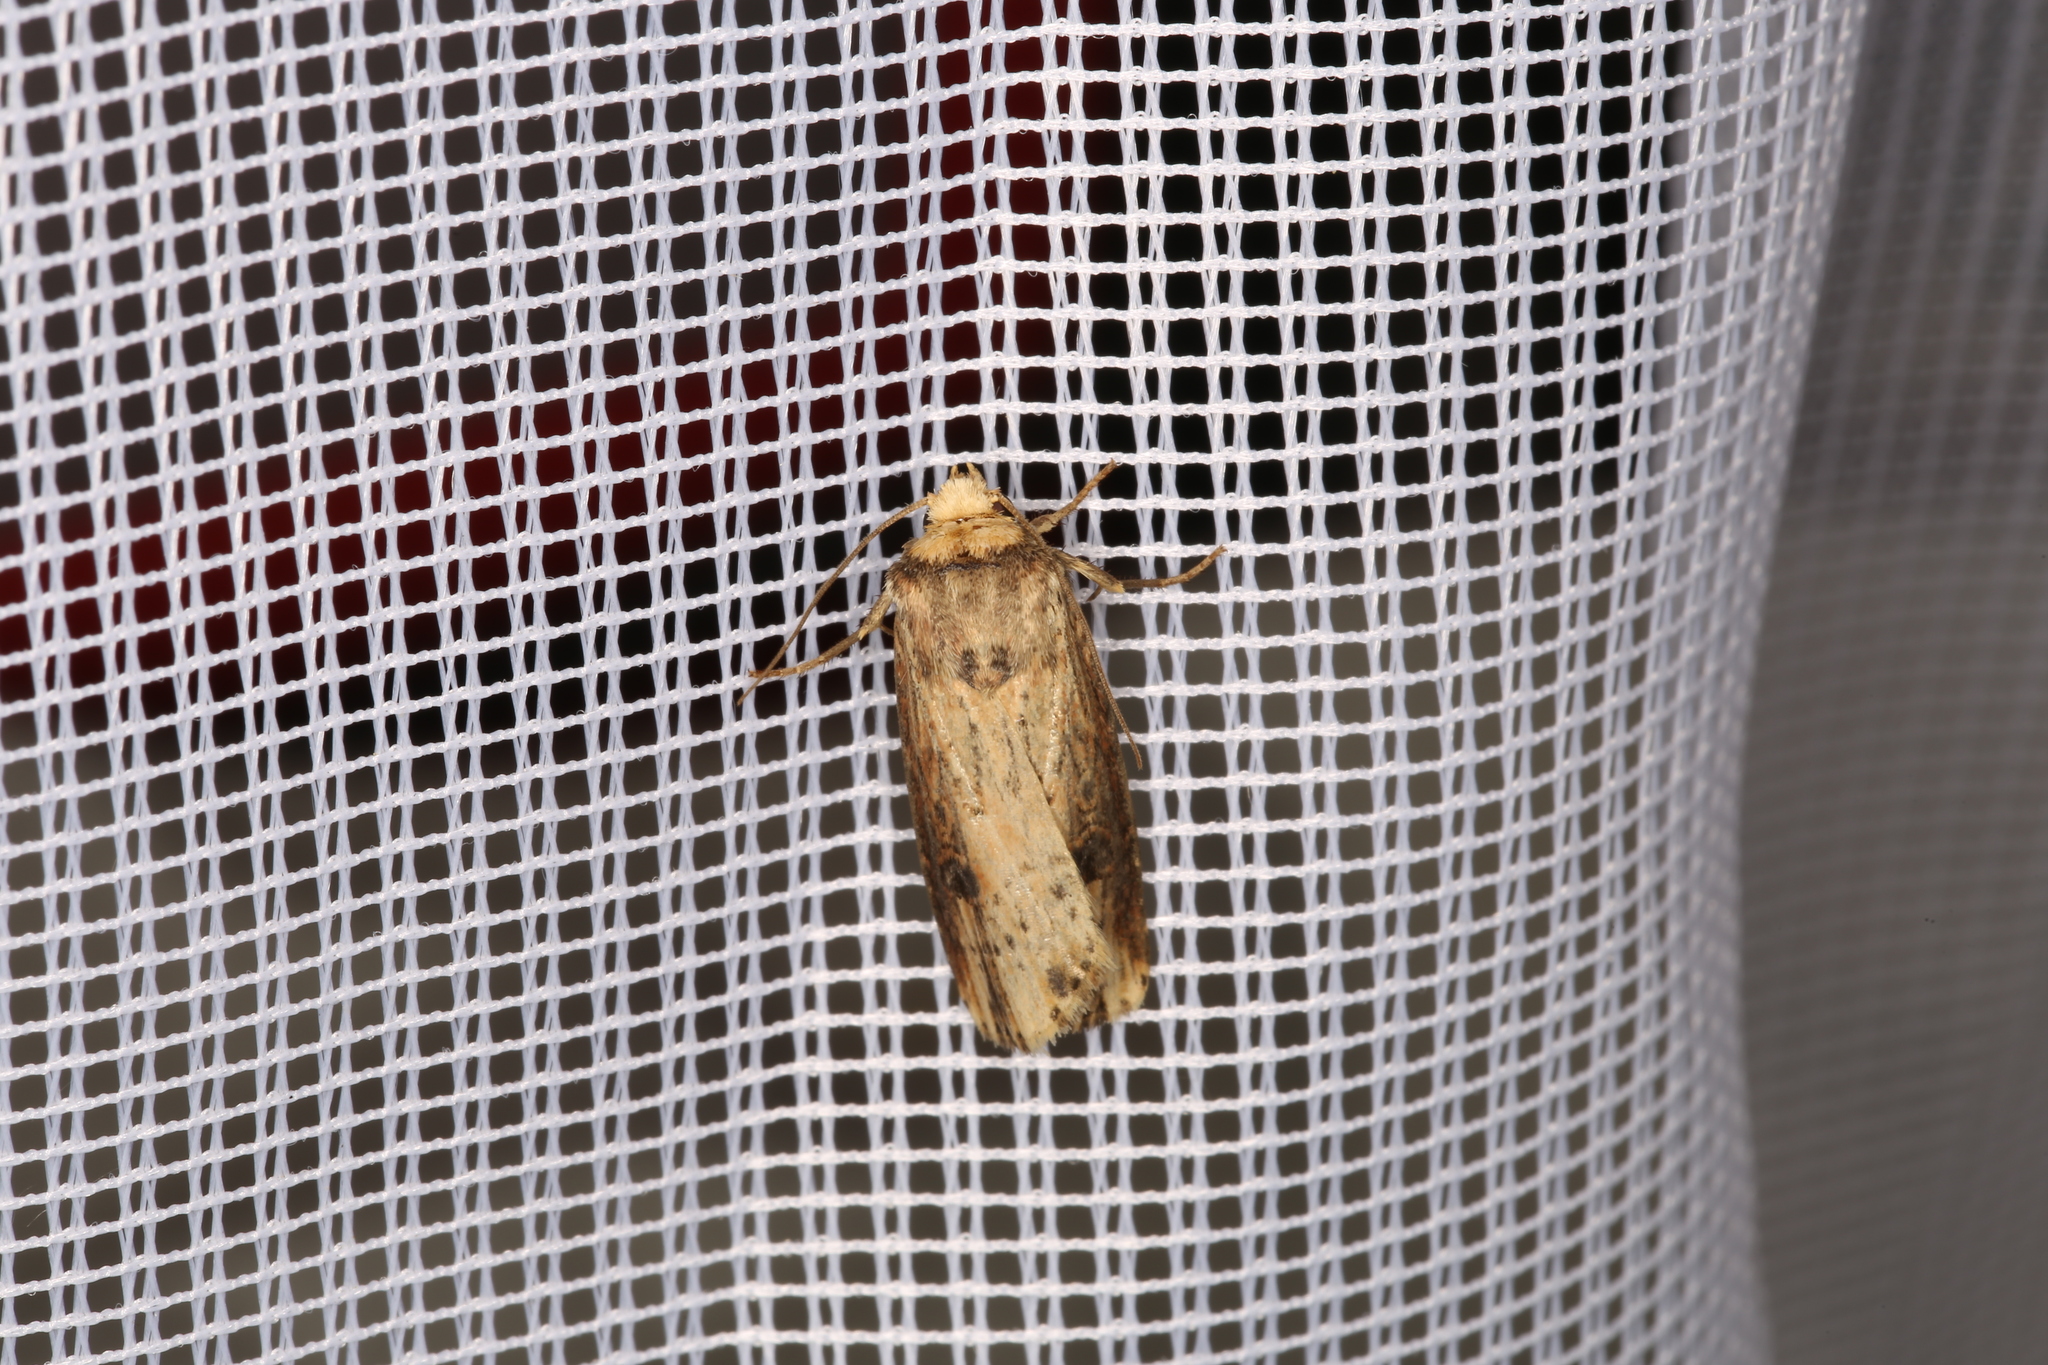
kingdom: Animalia
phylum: Arthropoda
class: Insecta
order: Lepidoptera
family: Noctuidae
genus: Axylia
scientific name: Axylia putris
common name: Flame
